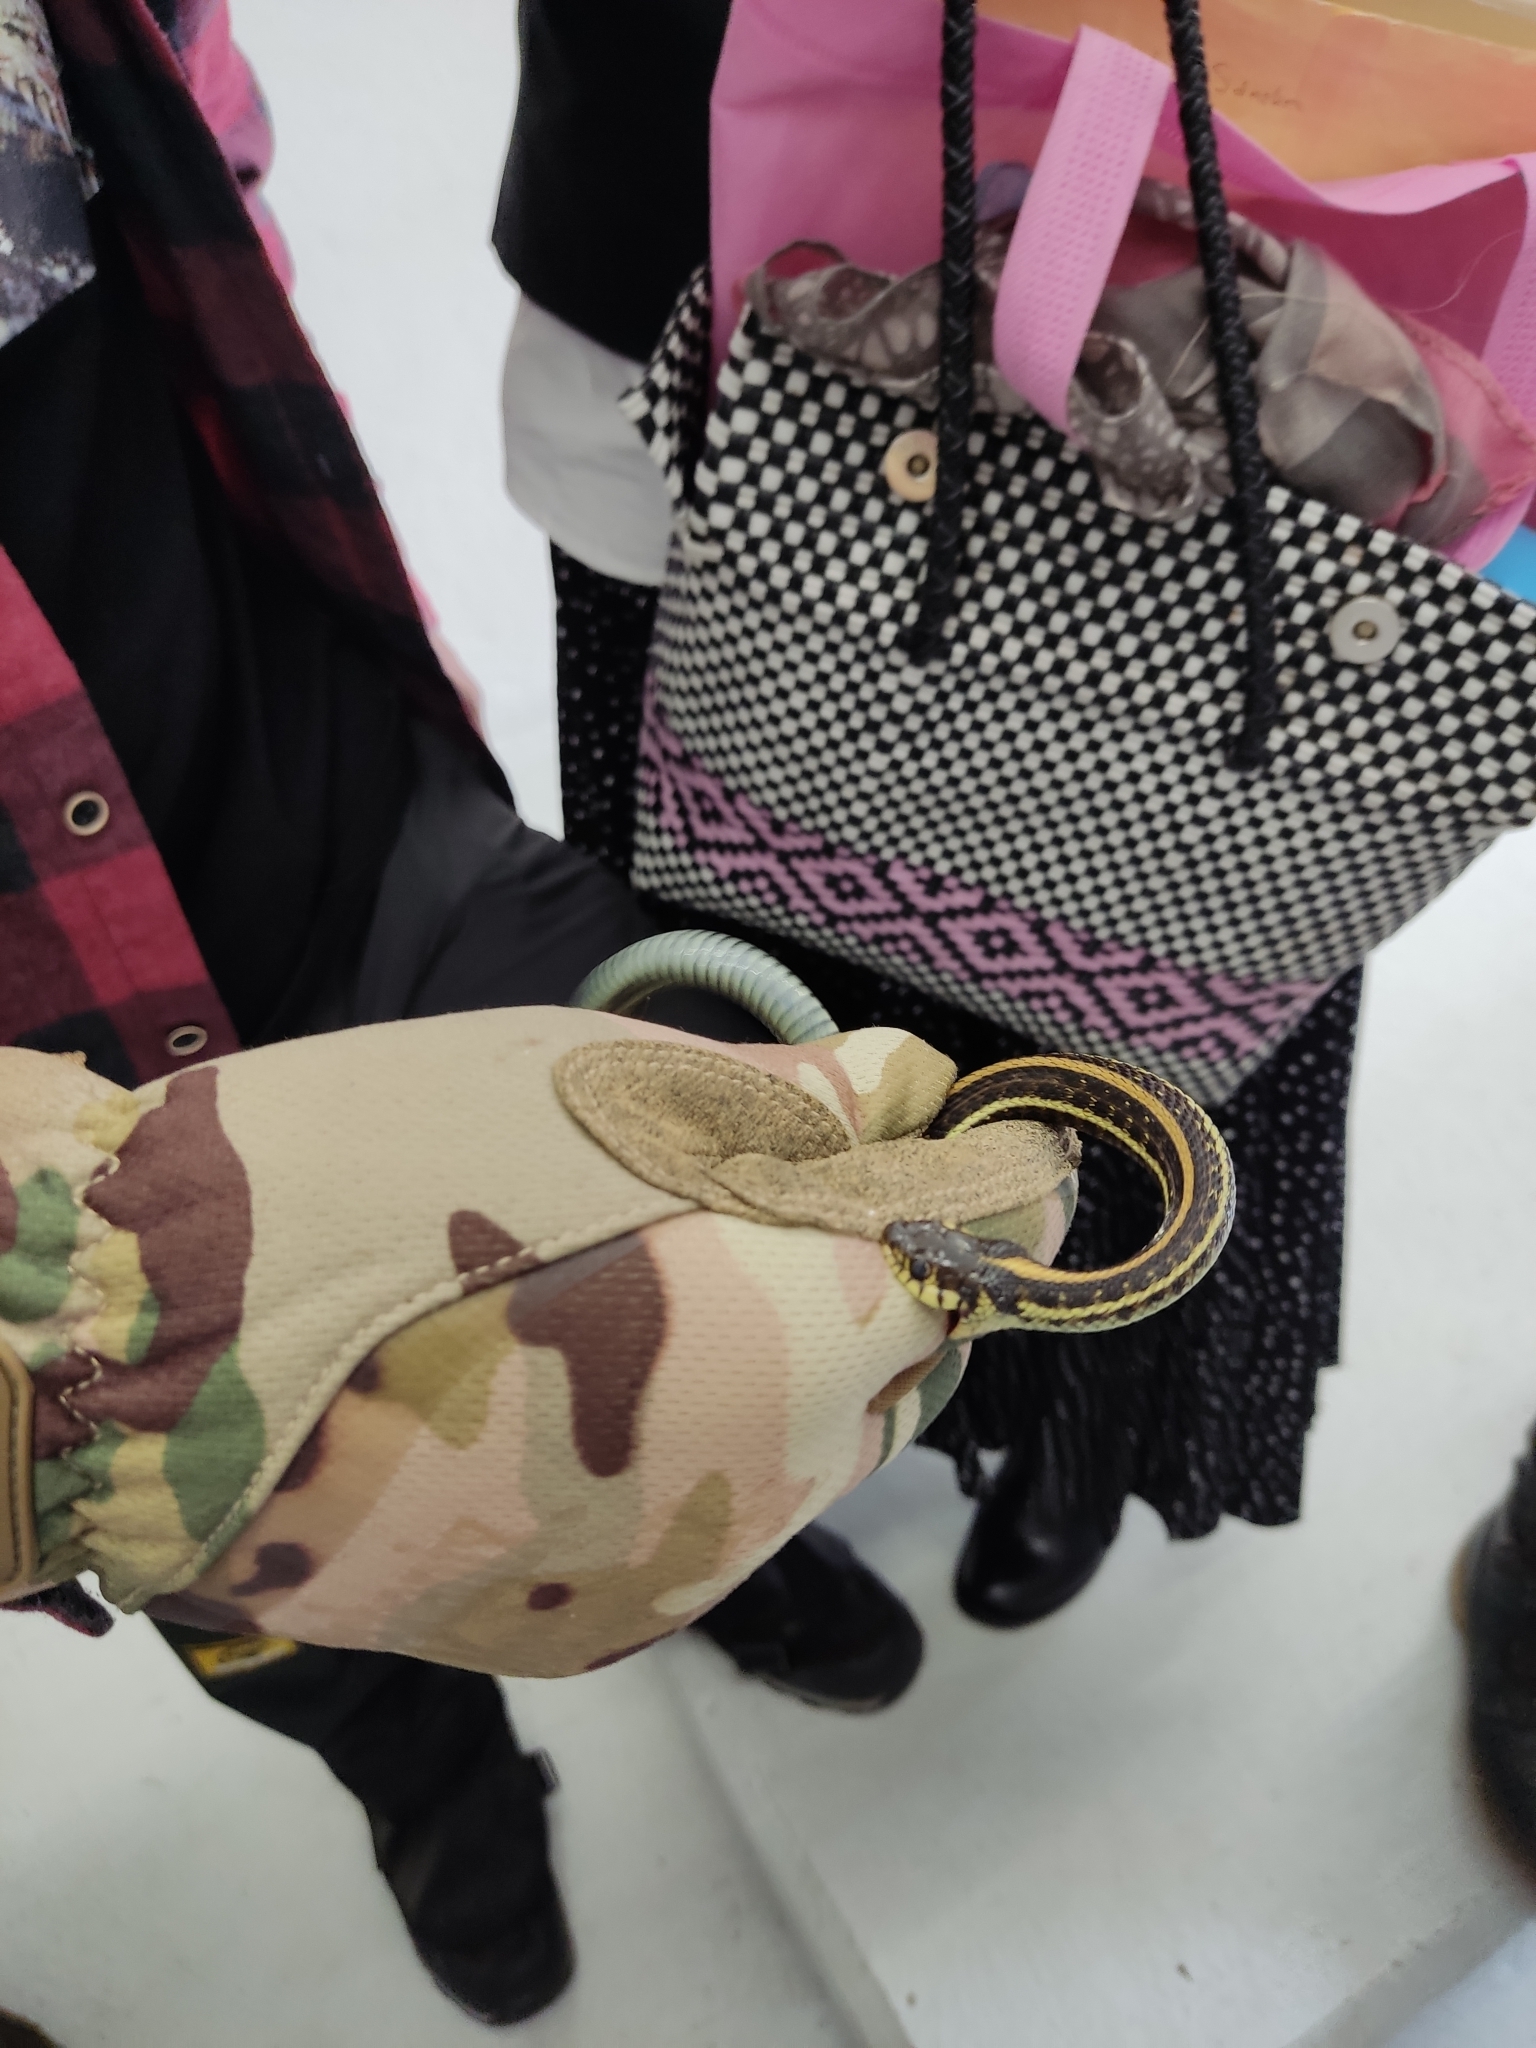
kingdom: Animalia
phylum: Chordata
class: Squamata
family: Colubridae
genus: Thamnophis
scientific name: Thamnophis eques
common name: Mexican garter snake
